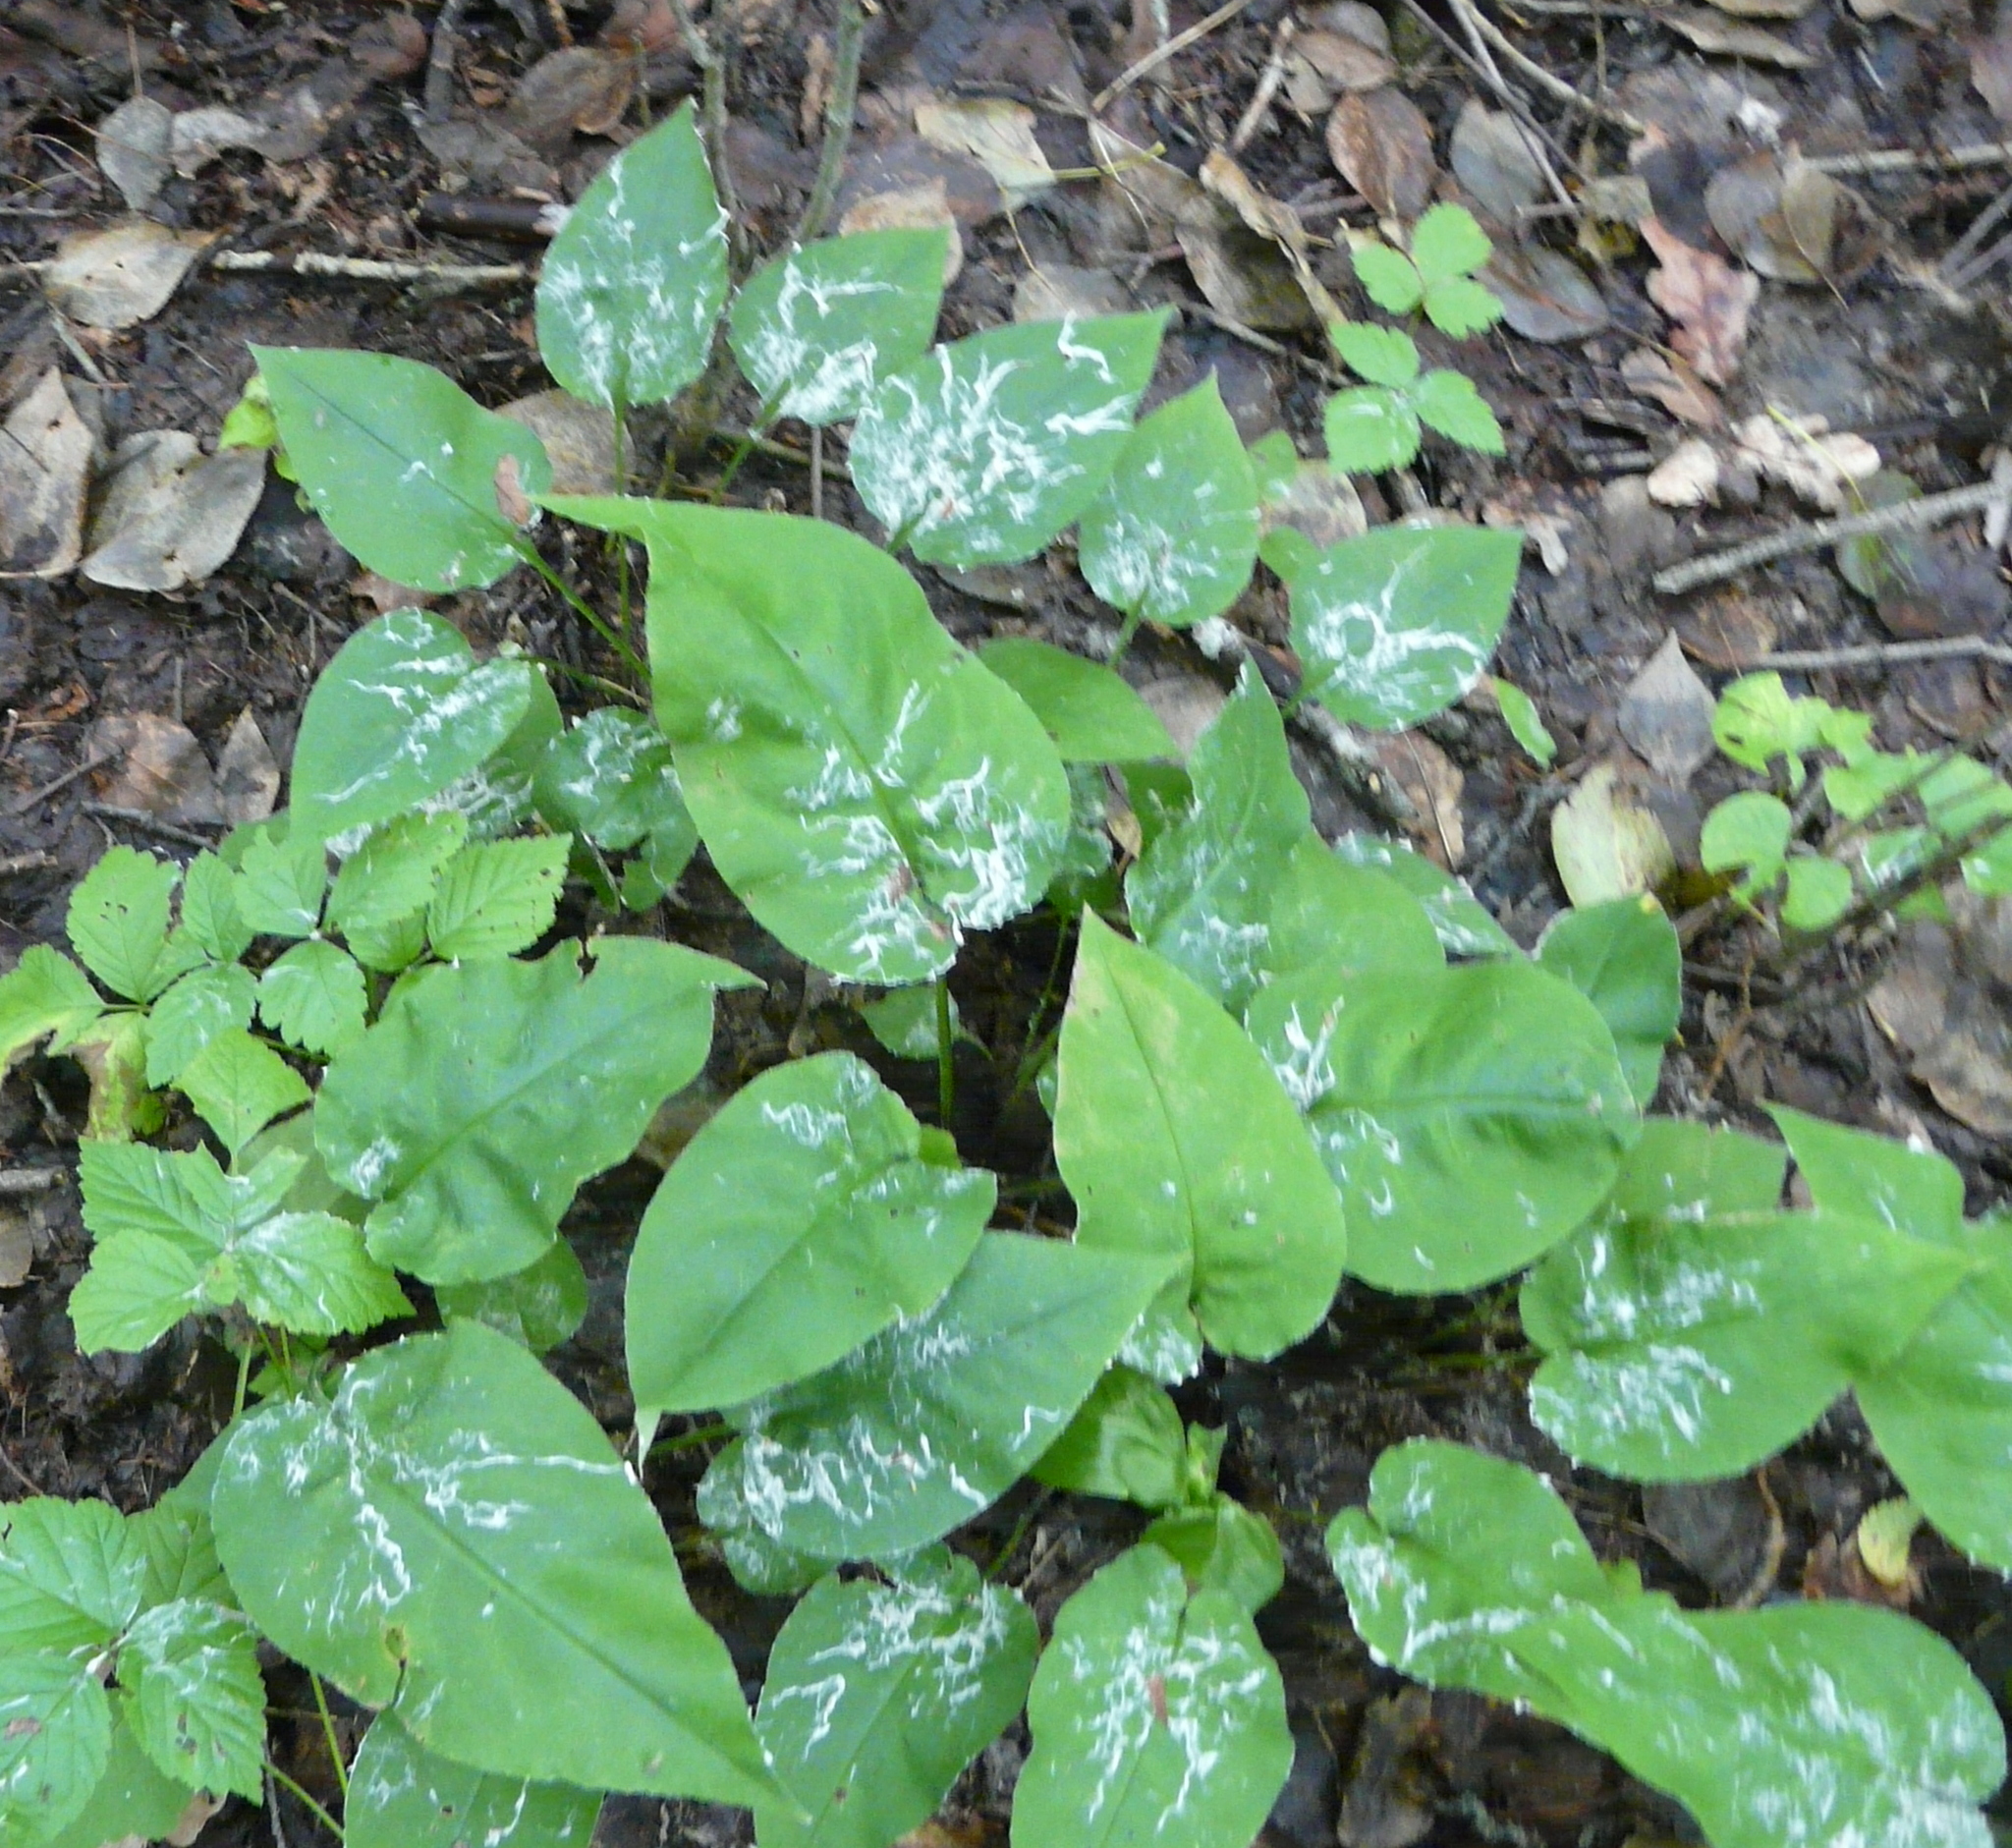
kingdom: Plantae
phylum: Tracheophyta
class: Magnoliopsida
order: Boraginales
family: Boraginaceae
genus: Pulmonaria
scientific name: Pulmonaria obscura
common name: Suffolk lungwort
